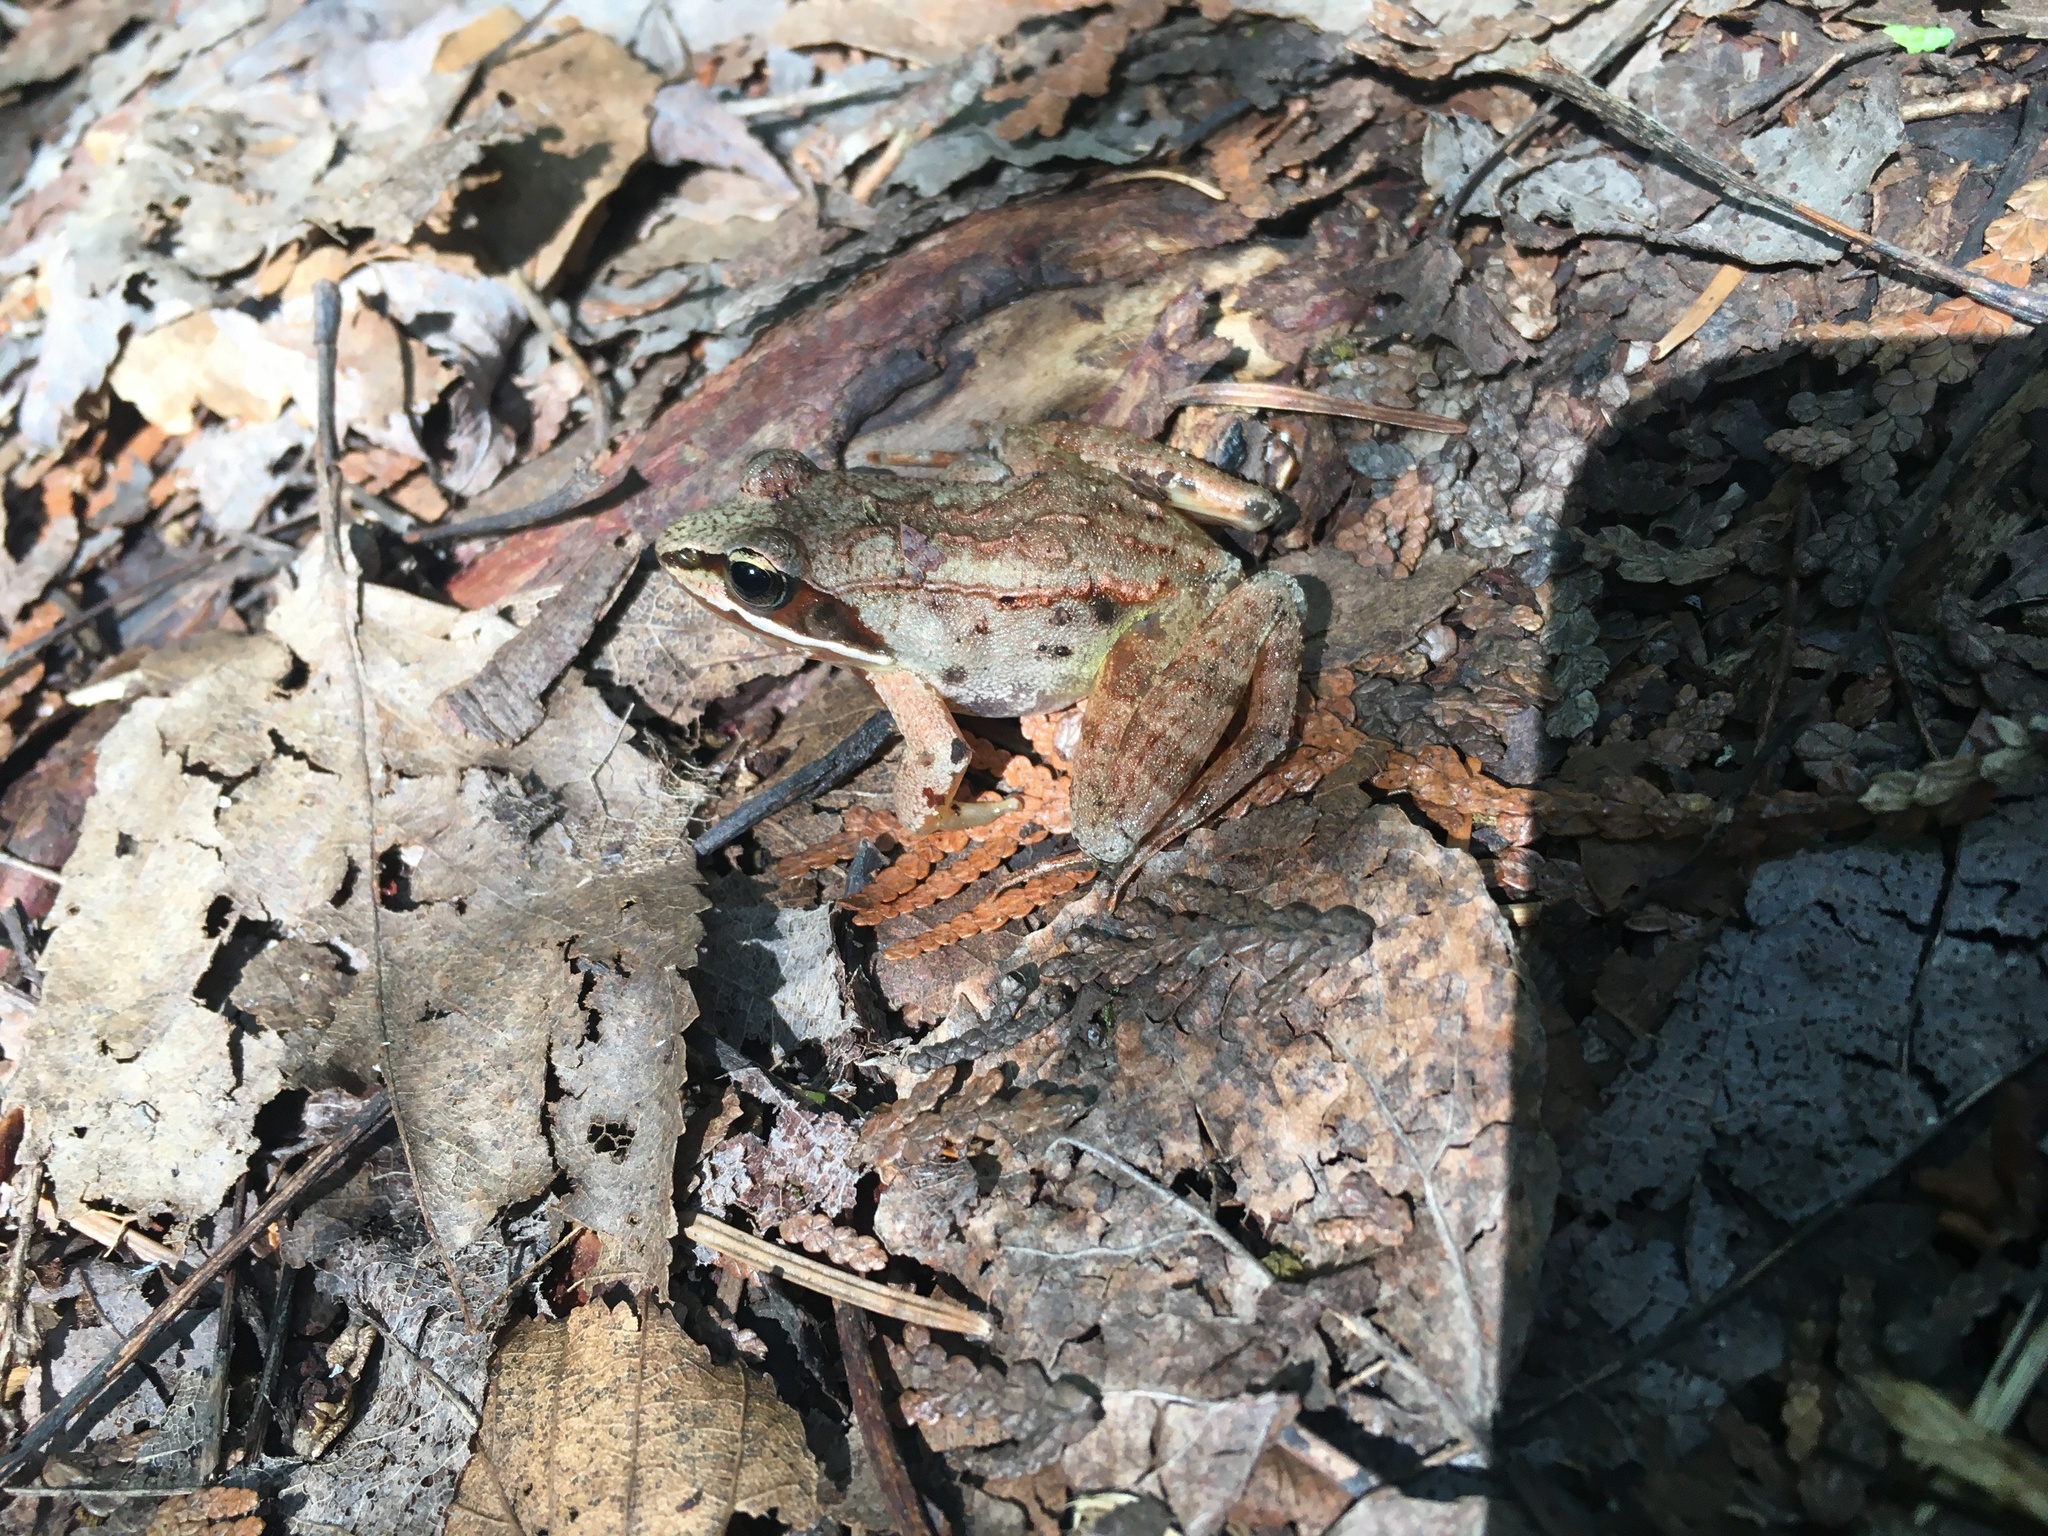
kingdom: Animalia
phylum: Chordata
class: Amphibia
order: Anura
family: Ranidae
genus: Lithobates
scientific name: Lithobates sylvaticus
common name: Wood frog
